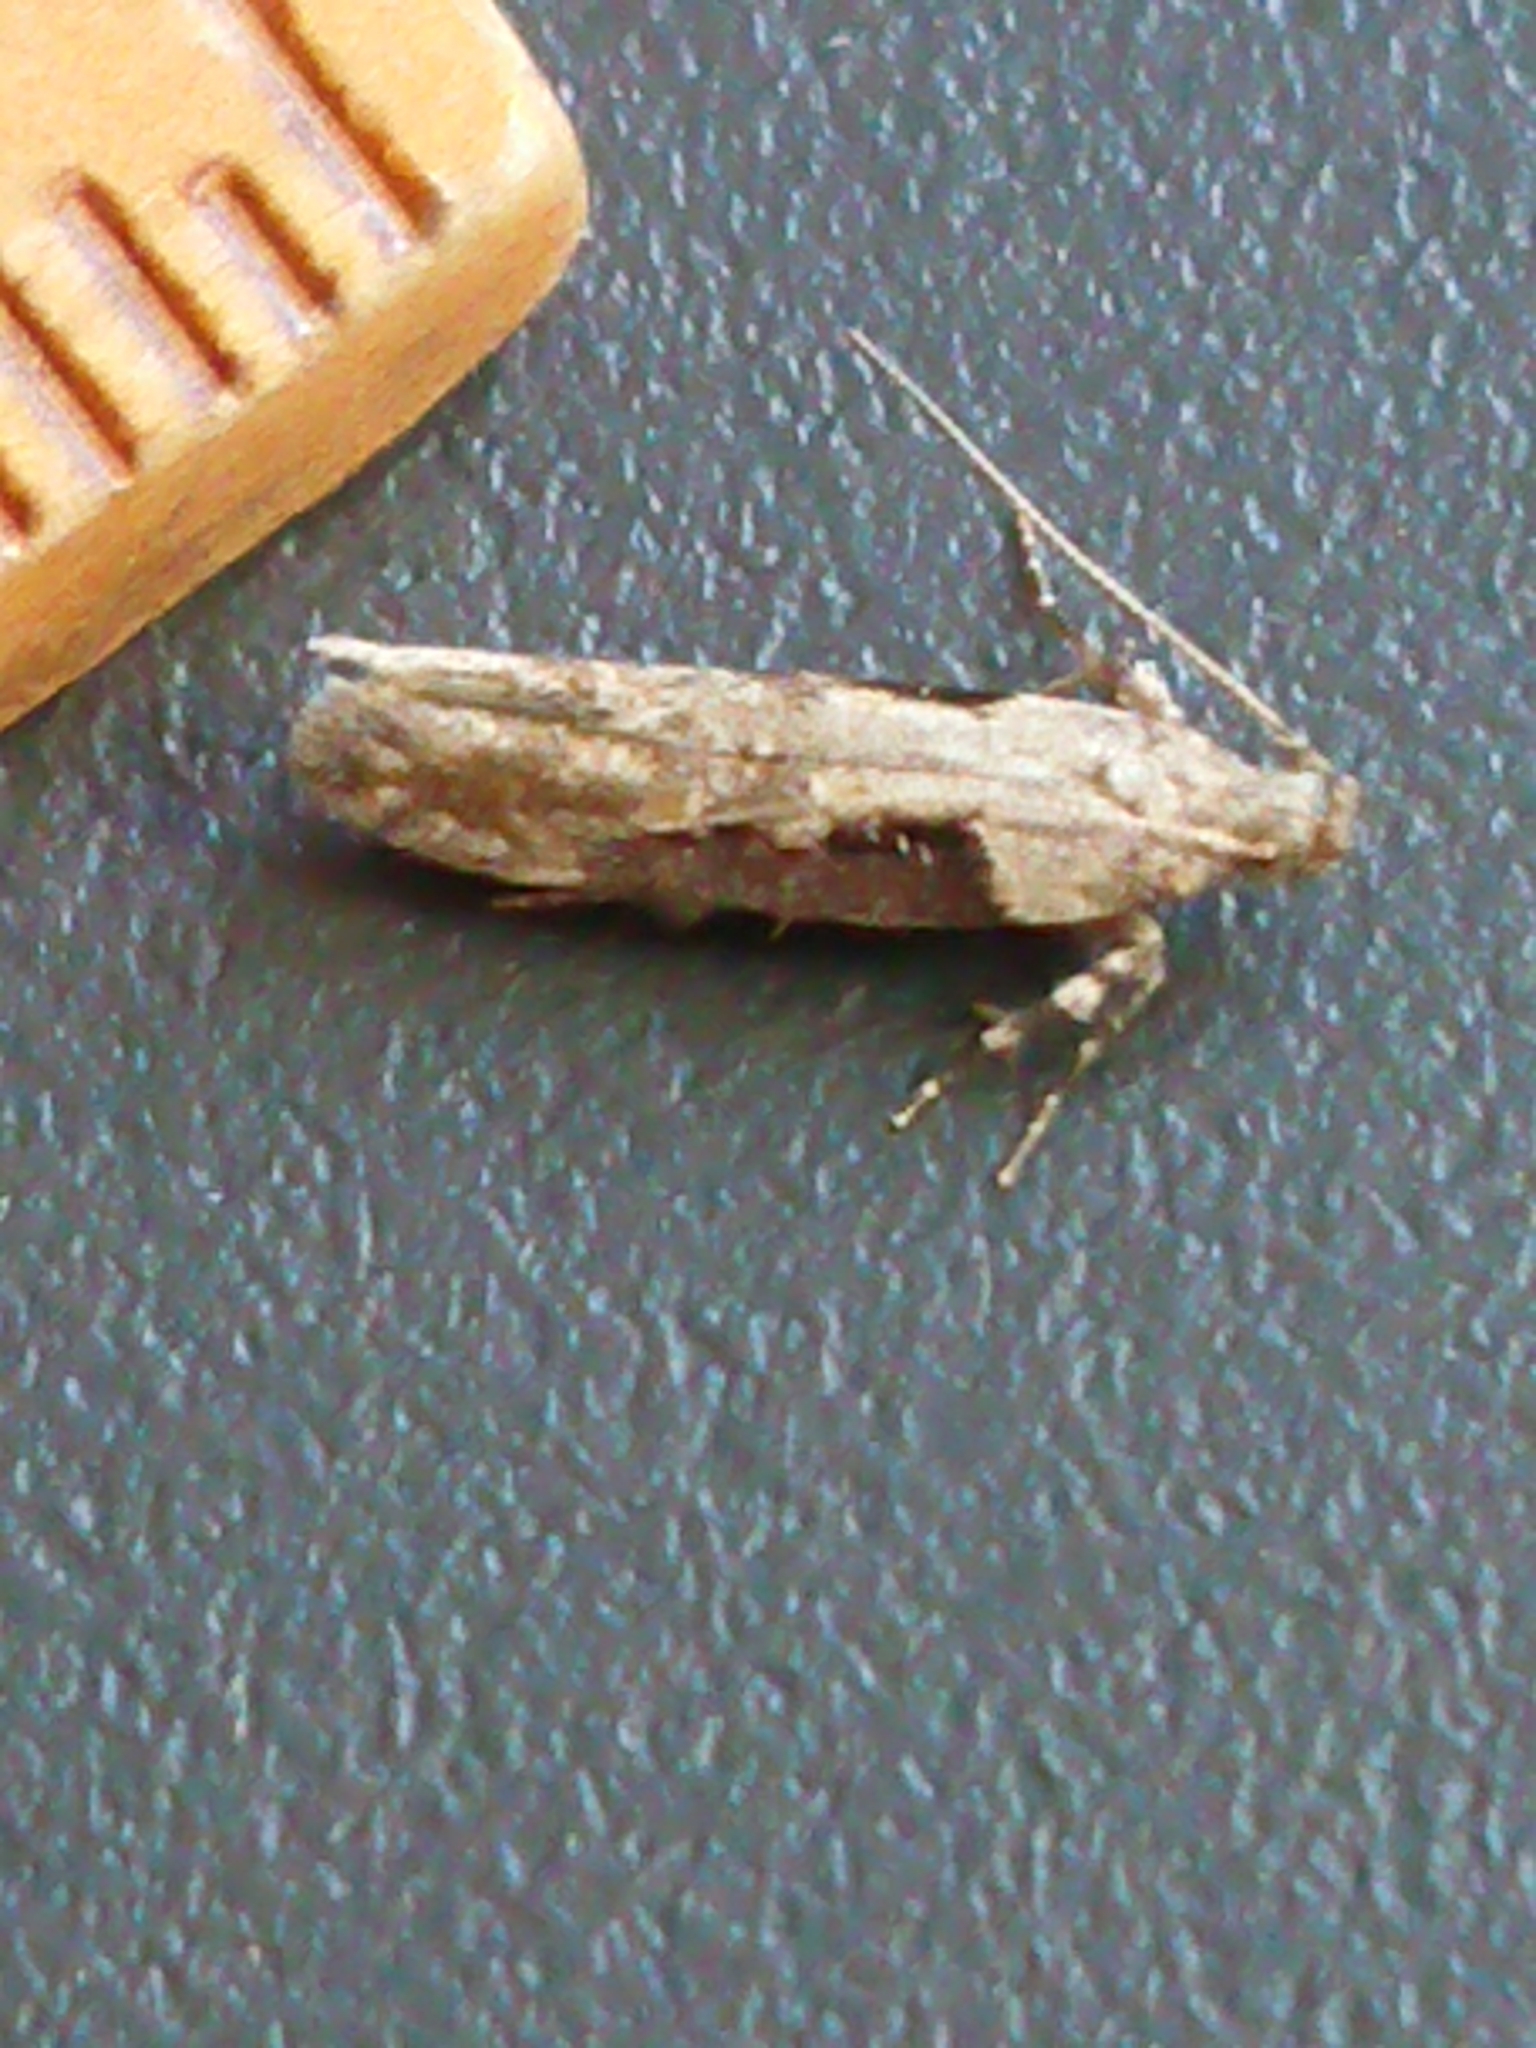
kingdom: Animalia
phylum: Arthropoda
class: Insecta
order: Lepidoptera
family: Gelechiidae
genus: Symmetrischema
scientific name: Symmetrischema tangolias
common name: Moth
